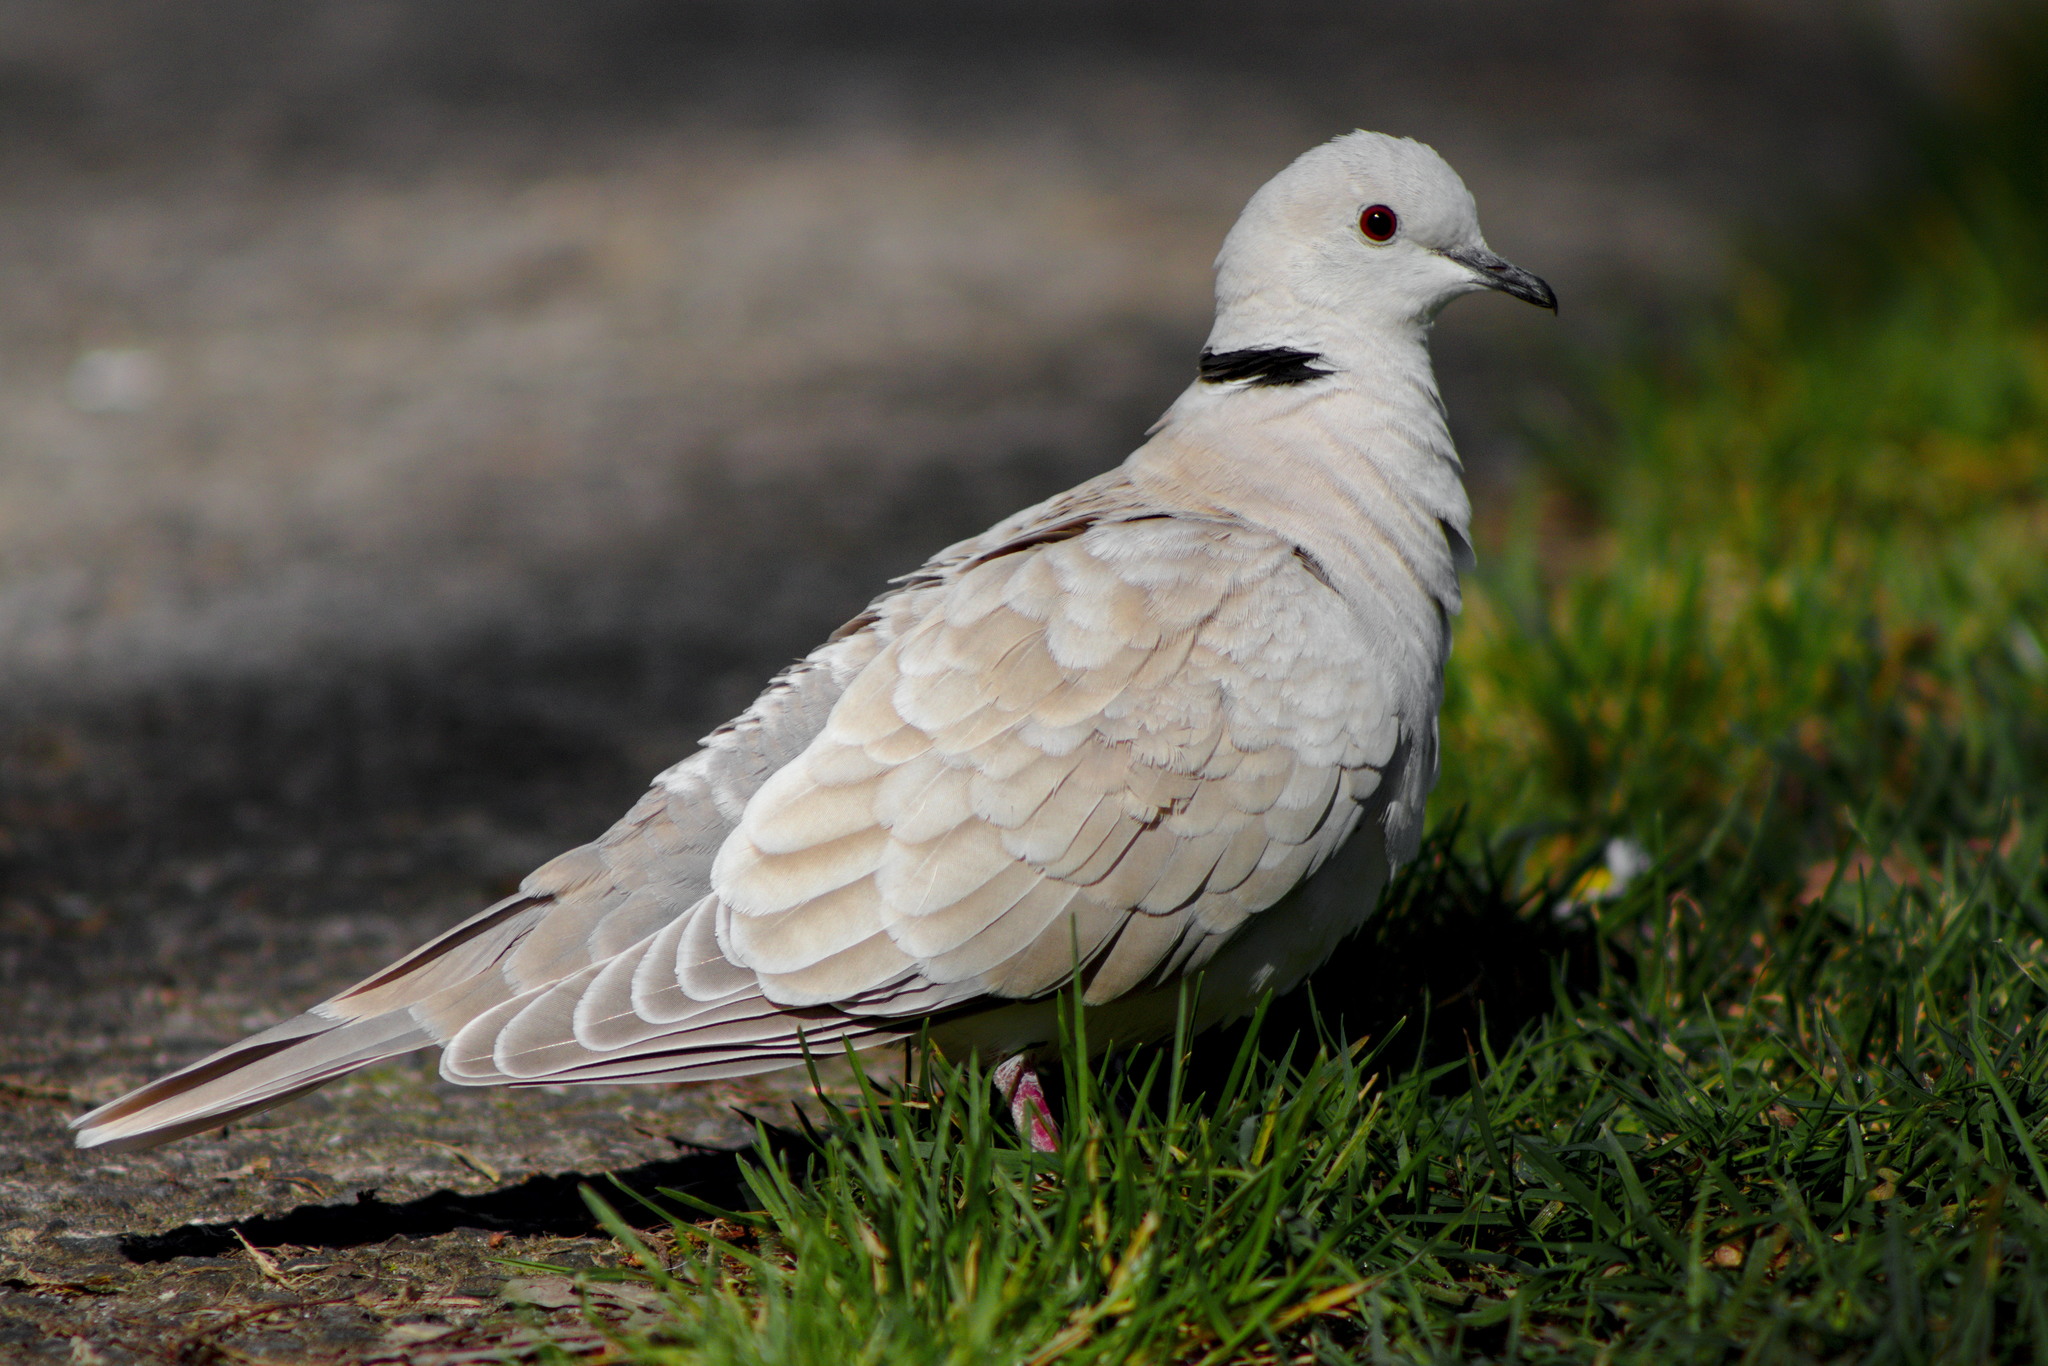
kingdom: Animalia
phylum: Chordata
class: Aves
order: Columbiformes
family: Columbidae
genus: Streptopelia
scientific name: Streptopelia roseogrisea
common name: African collared dove
